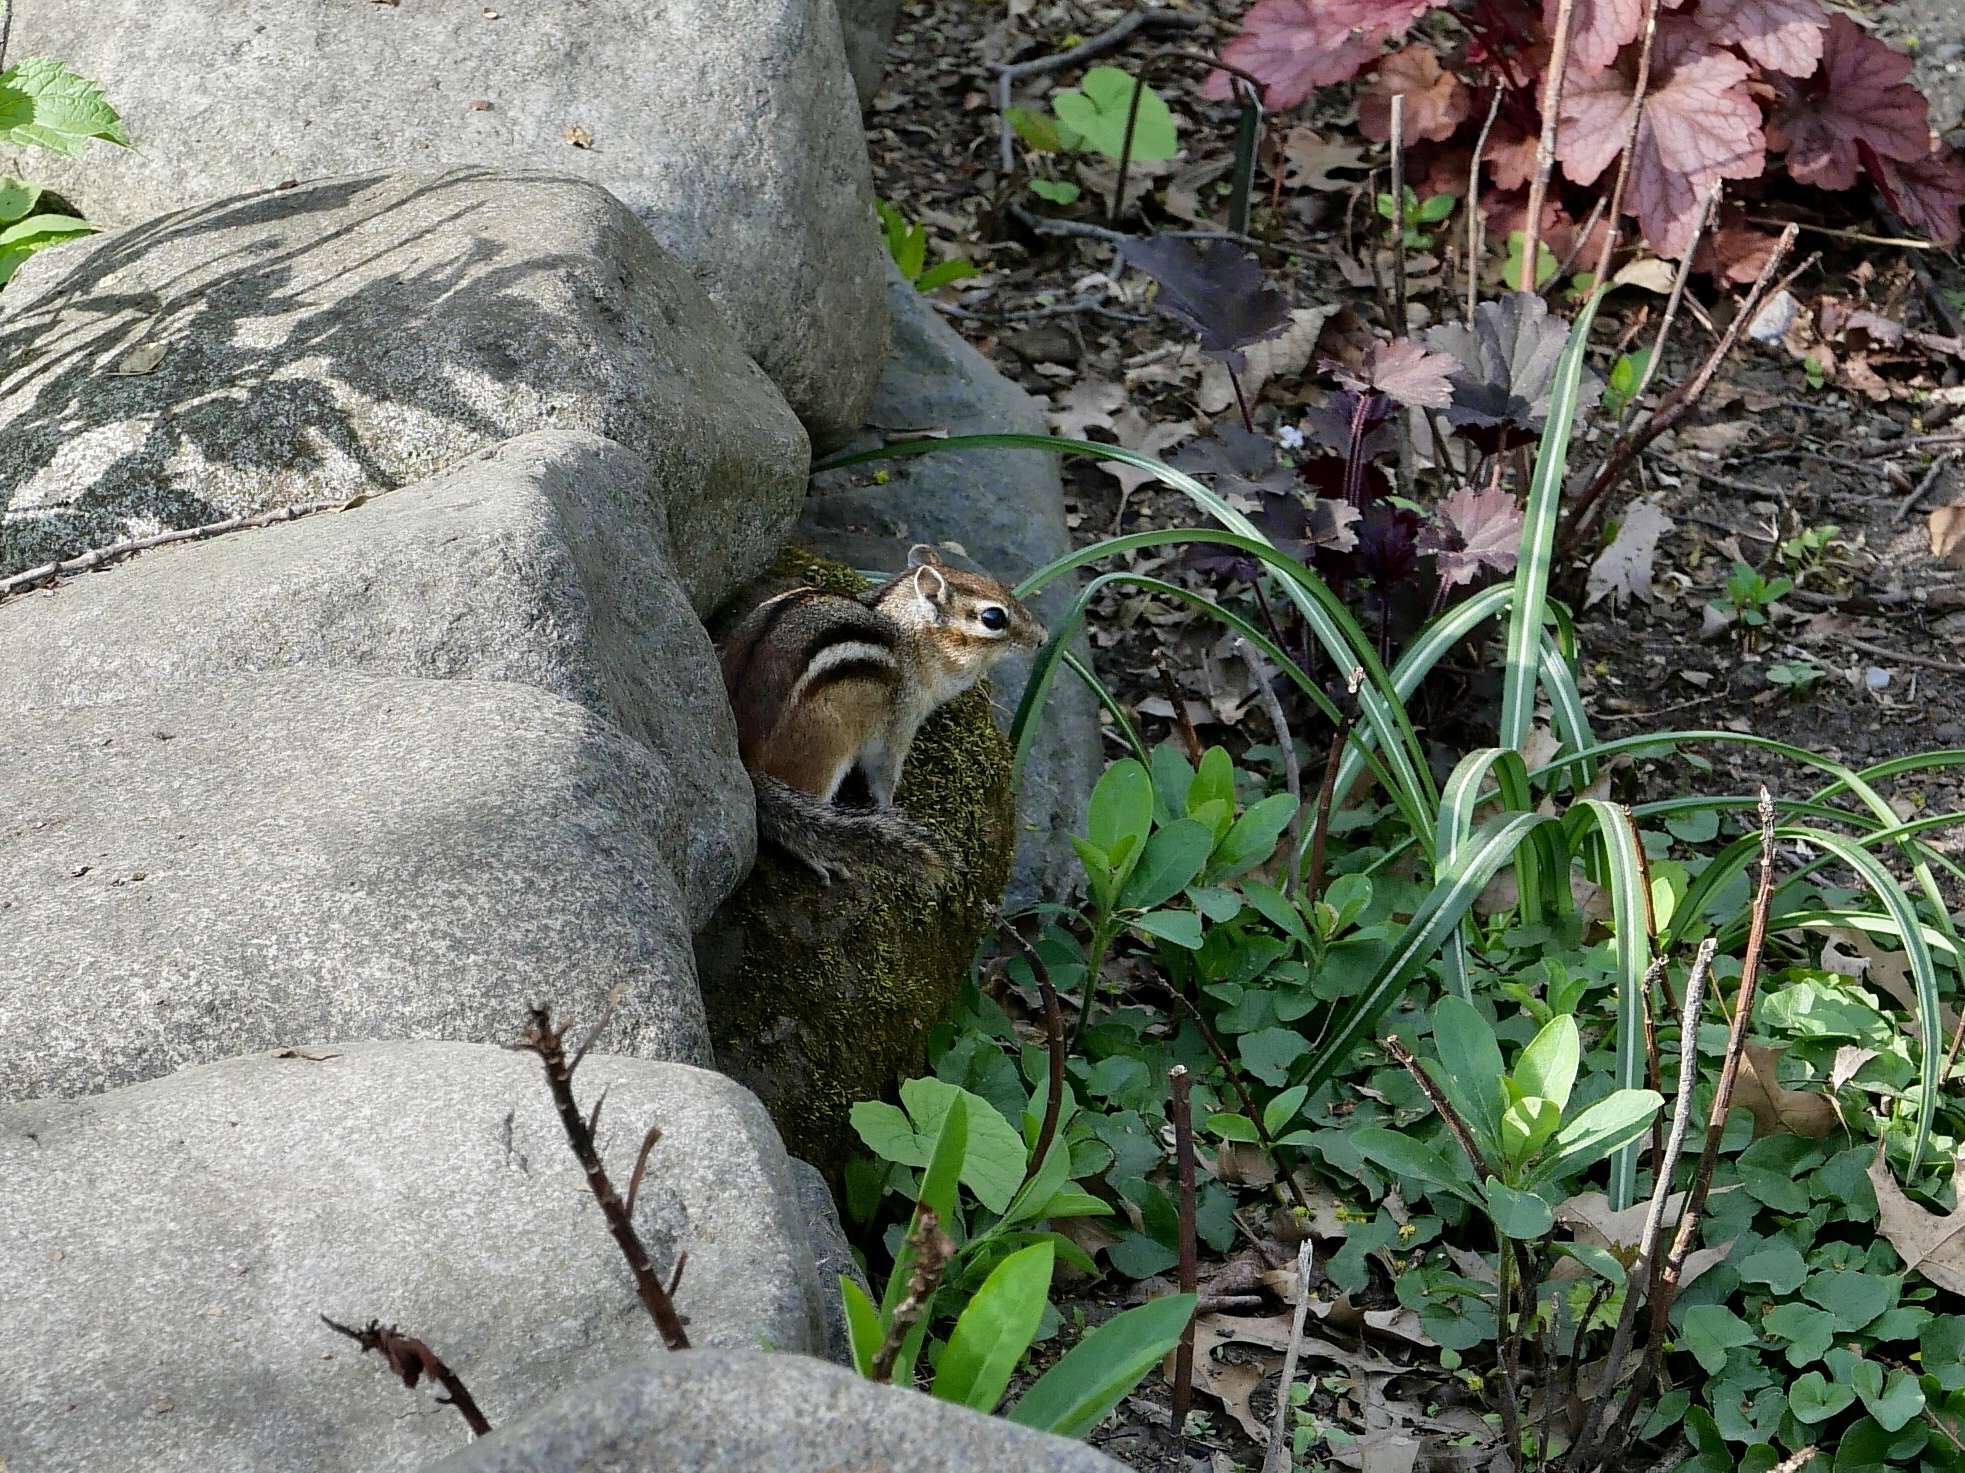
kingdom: Animalia
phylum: Chordata
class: Mammalia
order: Rodentia
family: Sciuridae
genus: Tamias
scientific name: Tamias striatus
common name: Eastern chipmunk
